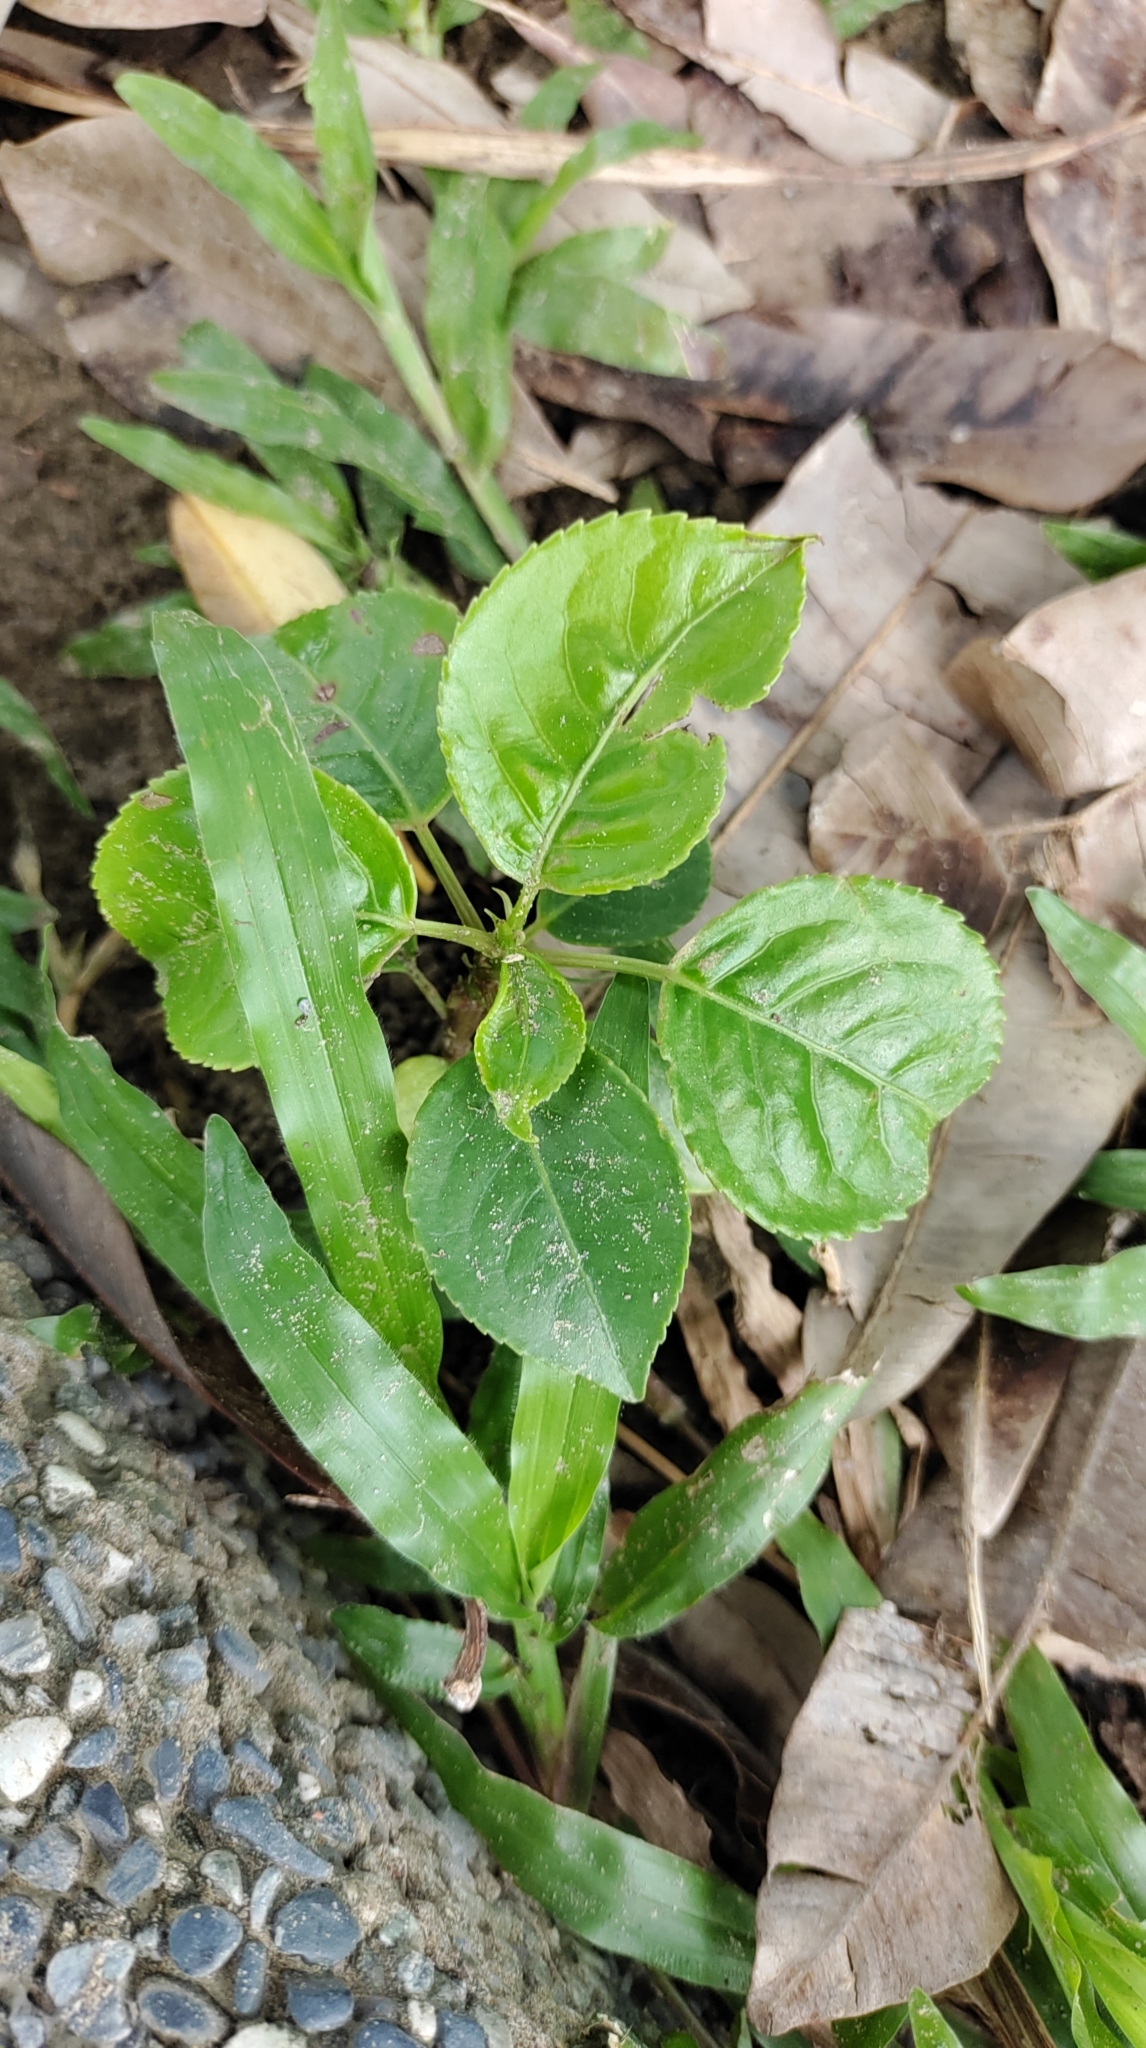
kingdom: Plantae
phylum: Tracheophyta
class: Magnoliopsida
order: Malpighiales
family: Phyllanthaceae
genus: Bischofia
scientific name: Bischofia javanica
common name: Javanese bishopwood
